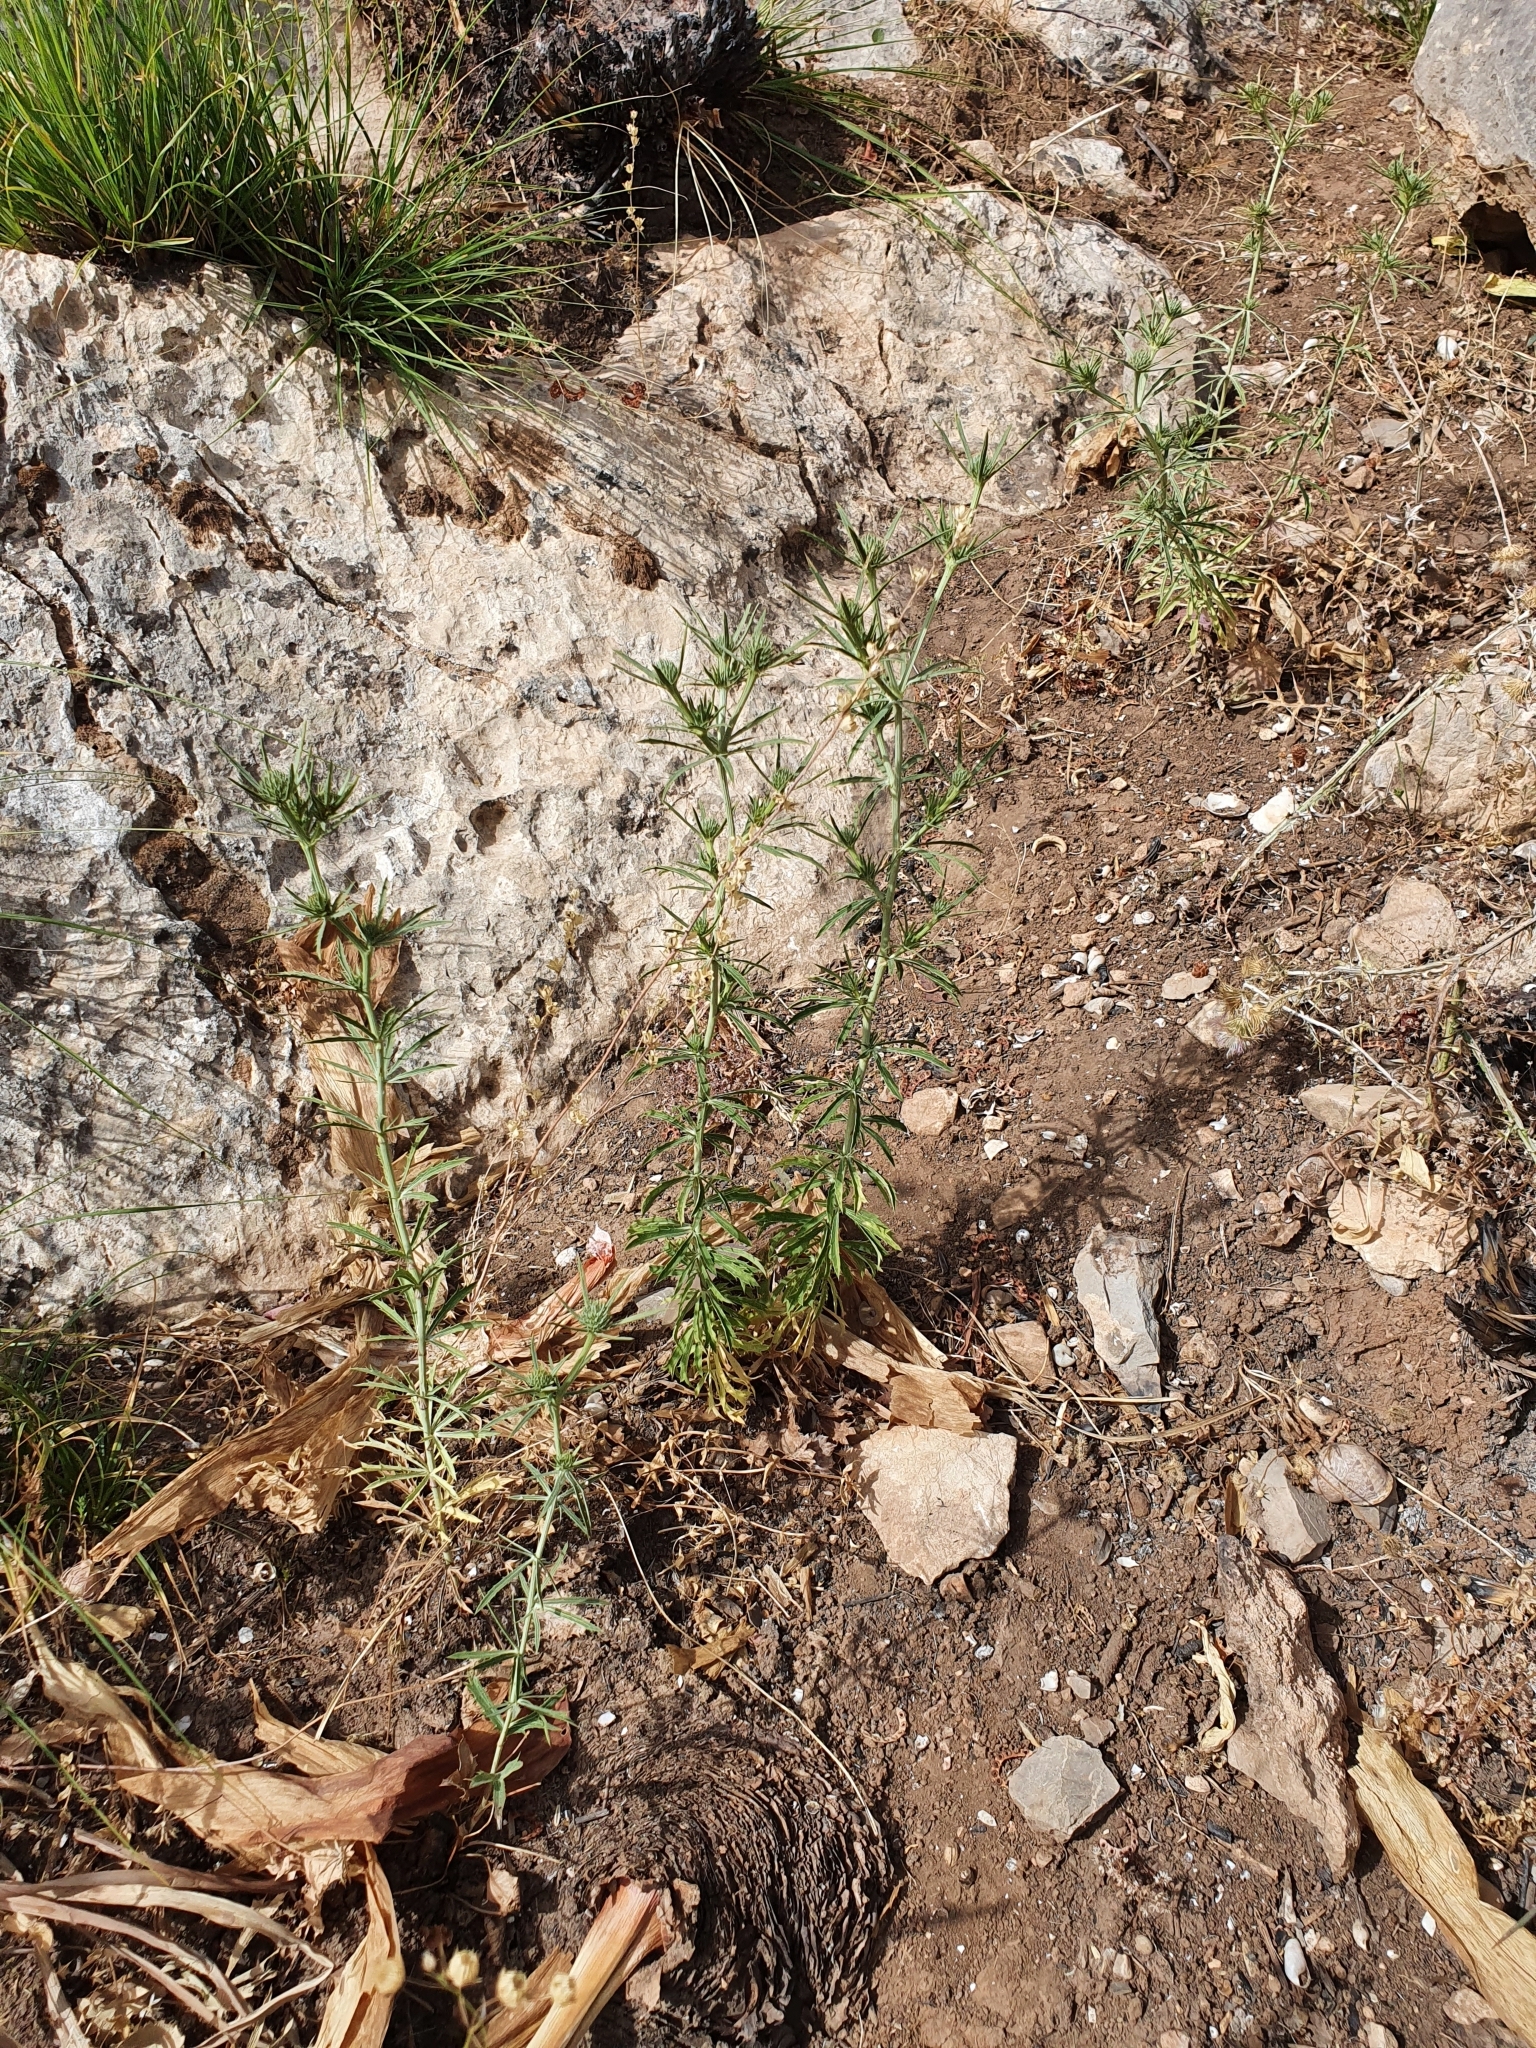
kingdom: Plantae
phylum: Tracheophyta
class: Magnoliopsida
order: Apiales
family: Apiaceae
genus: Eryngium
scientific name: Eryngium tricuspidatum
